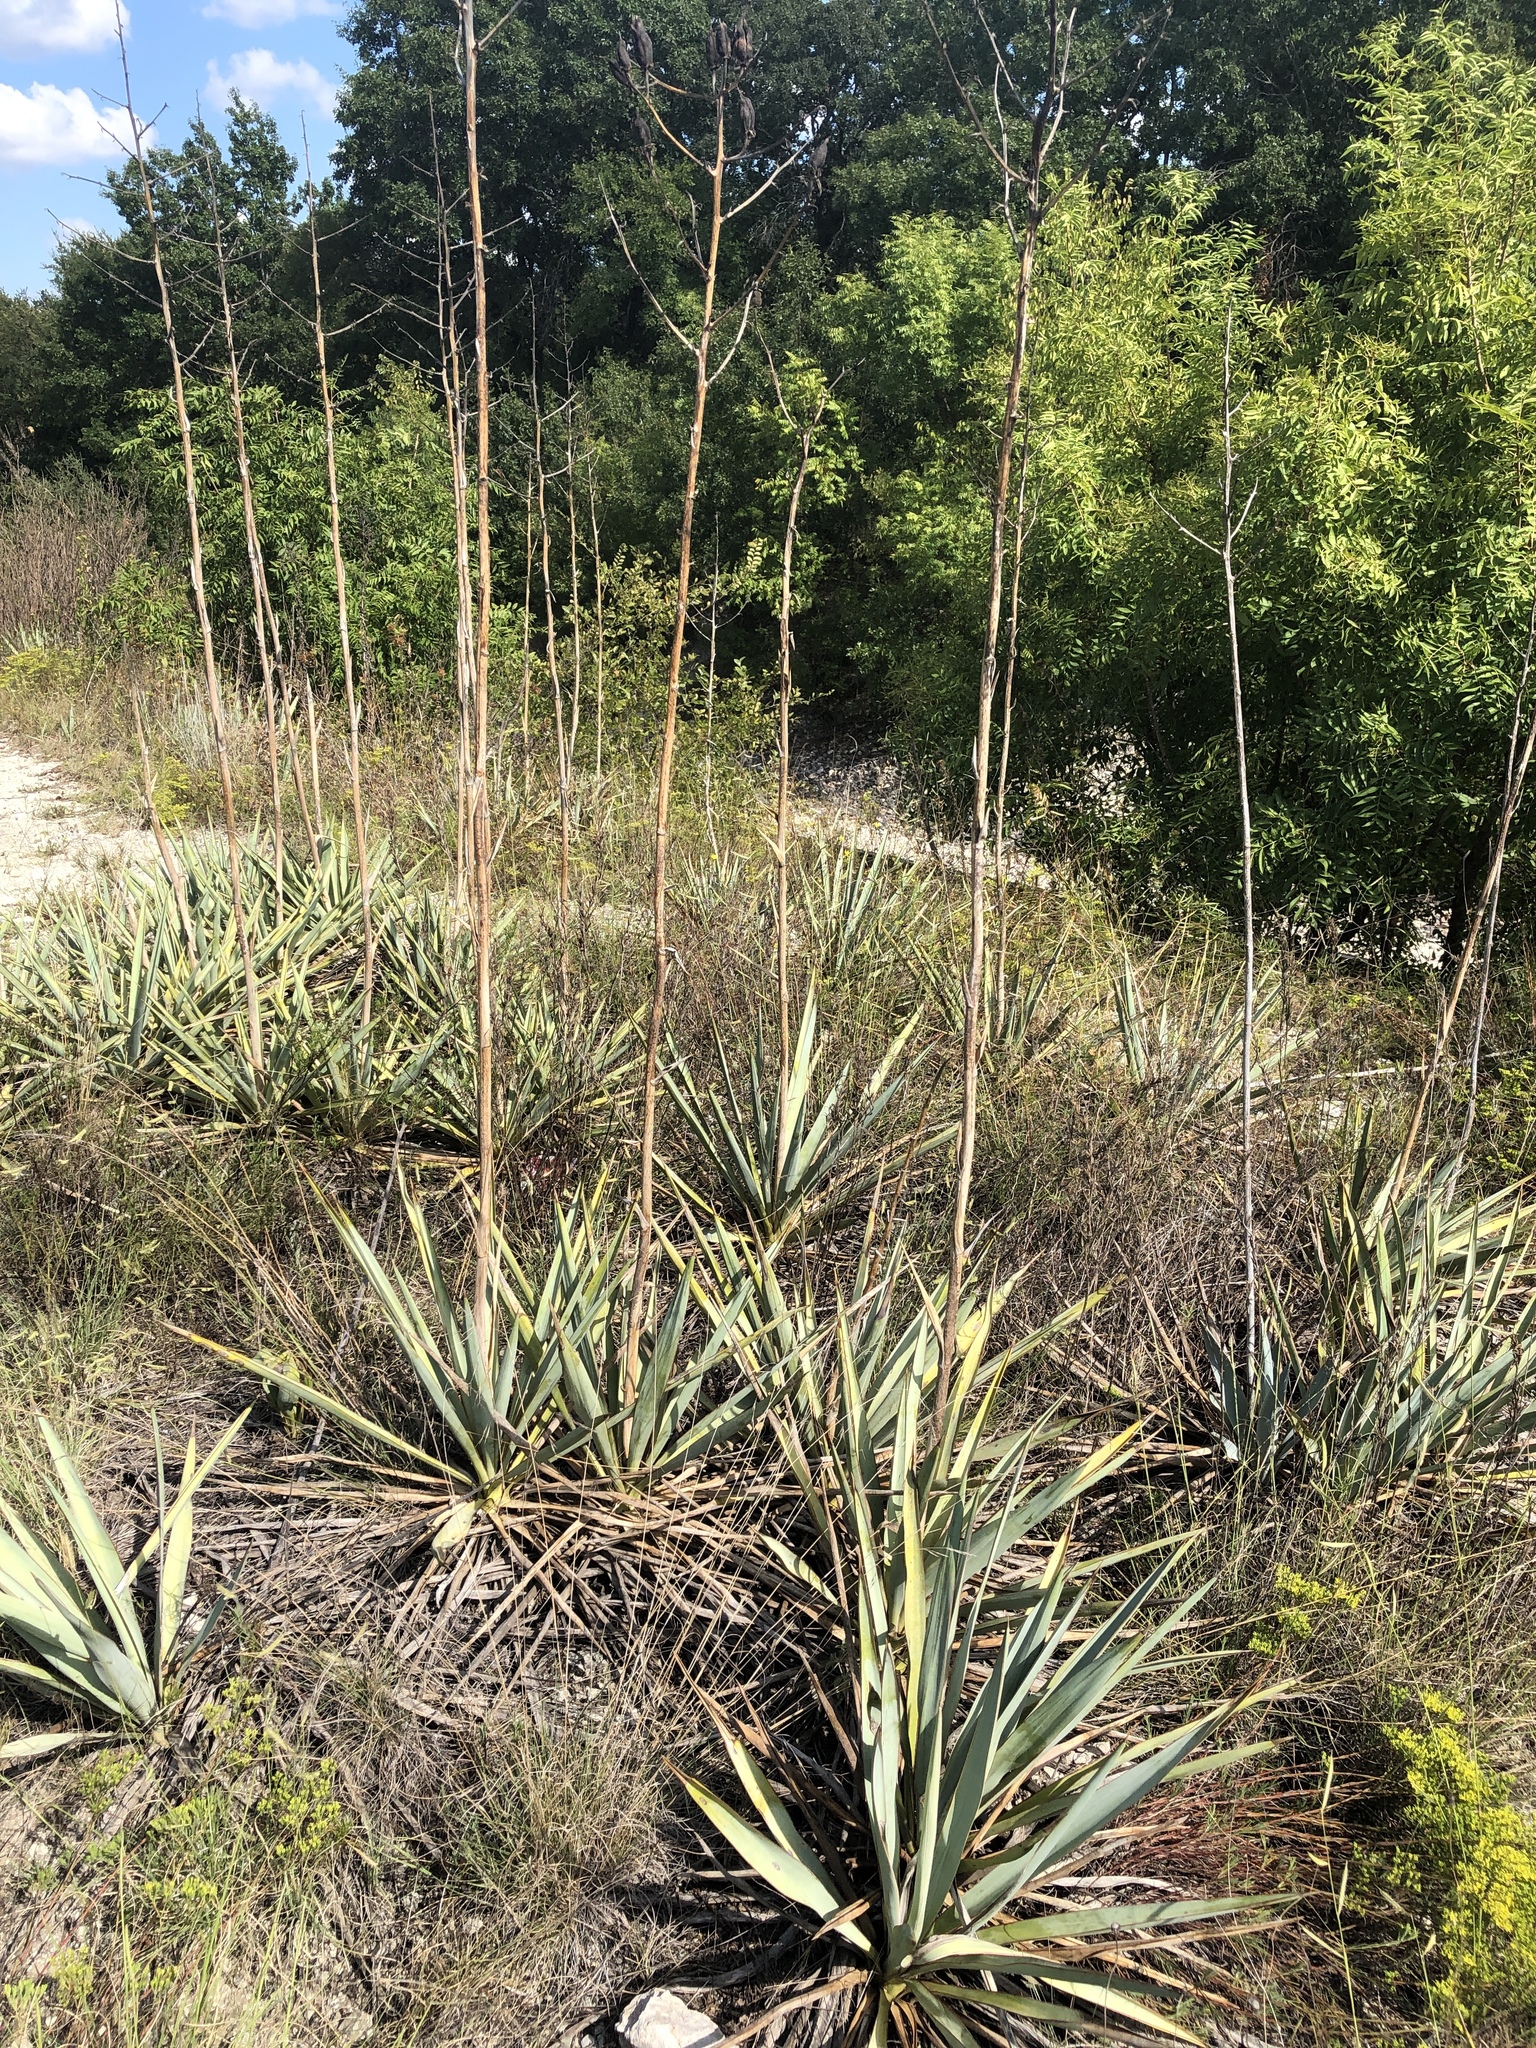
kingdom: Plantae
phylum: Tracheophyta
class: Liliopsida
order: Asparagales
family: Asparagaceae
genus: Yucca
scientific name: Yucca pallida
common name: Pale leaf yucca
